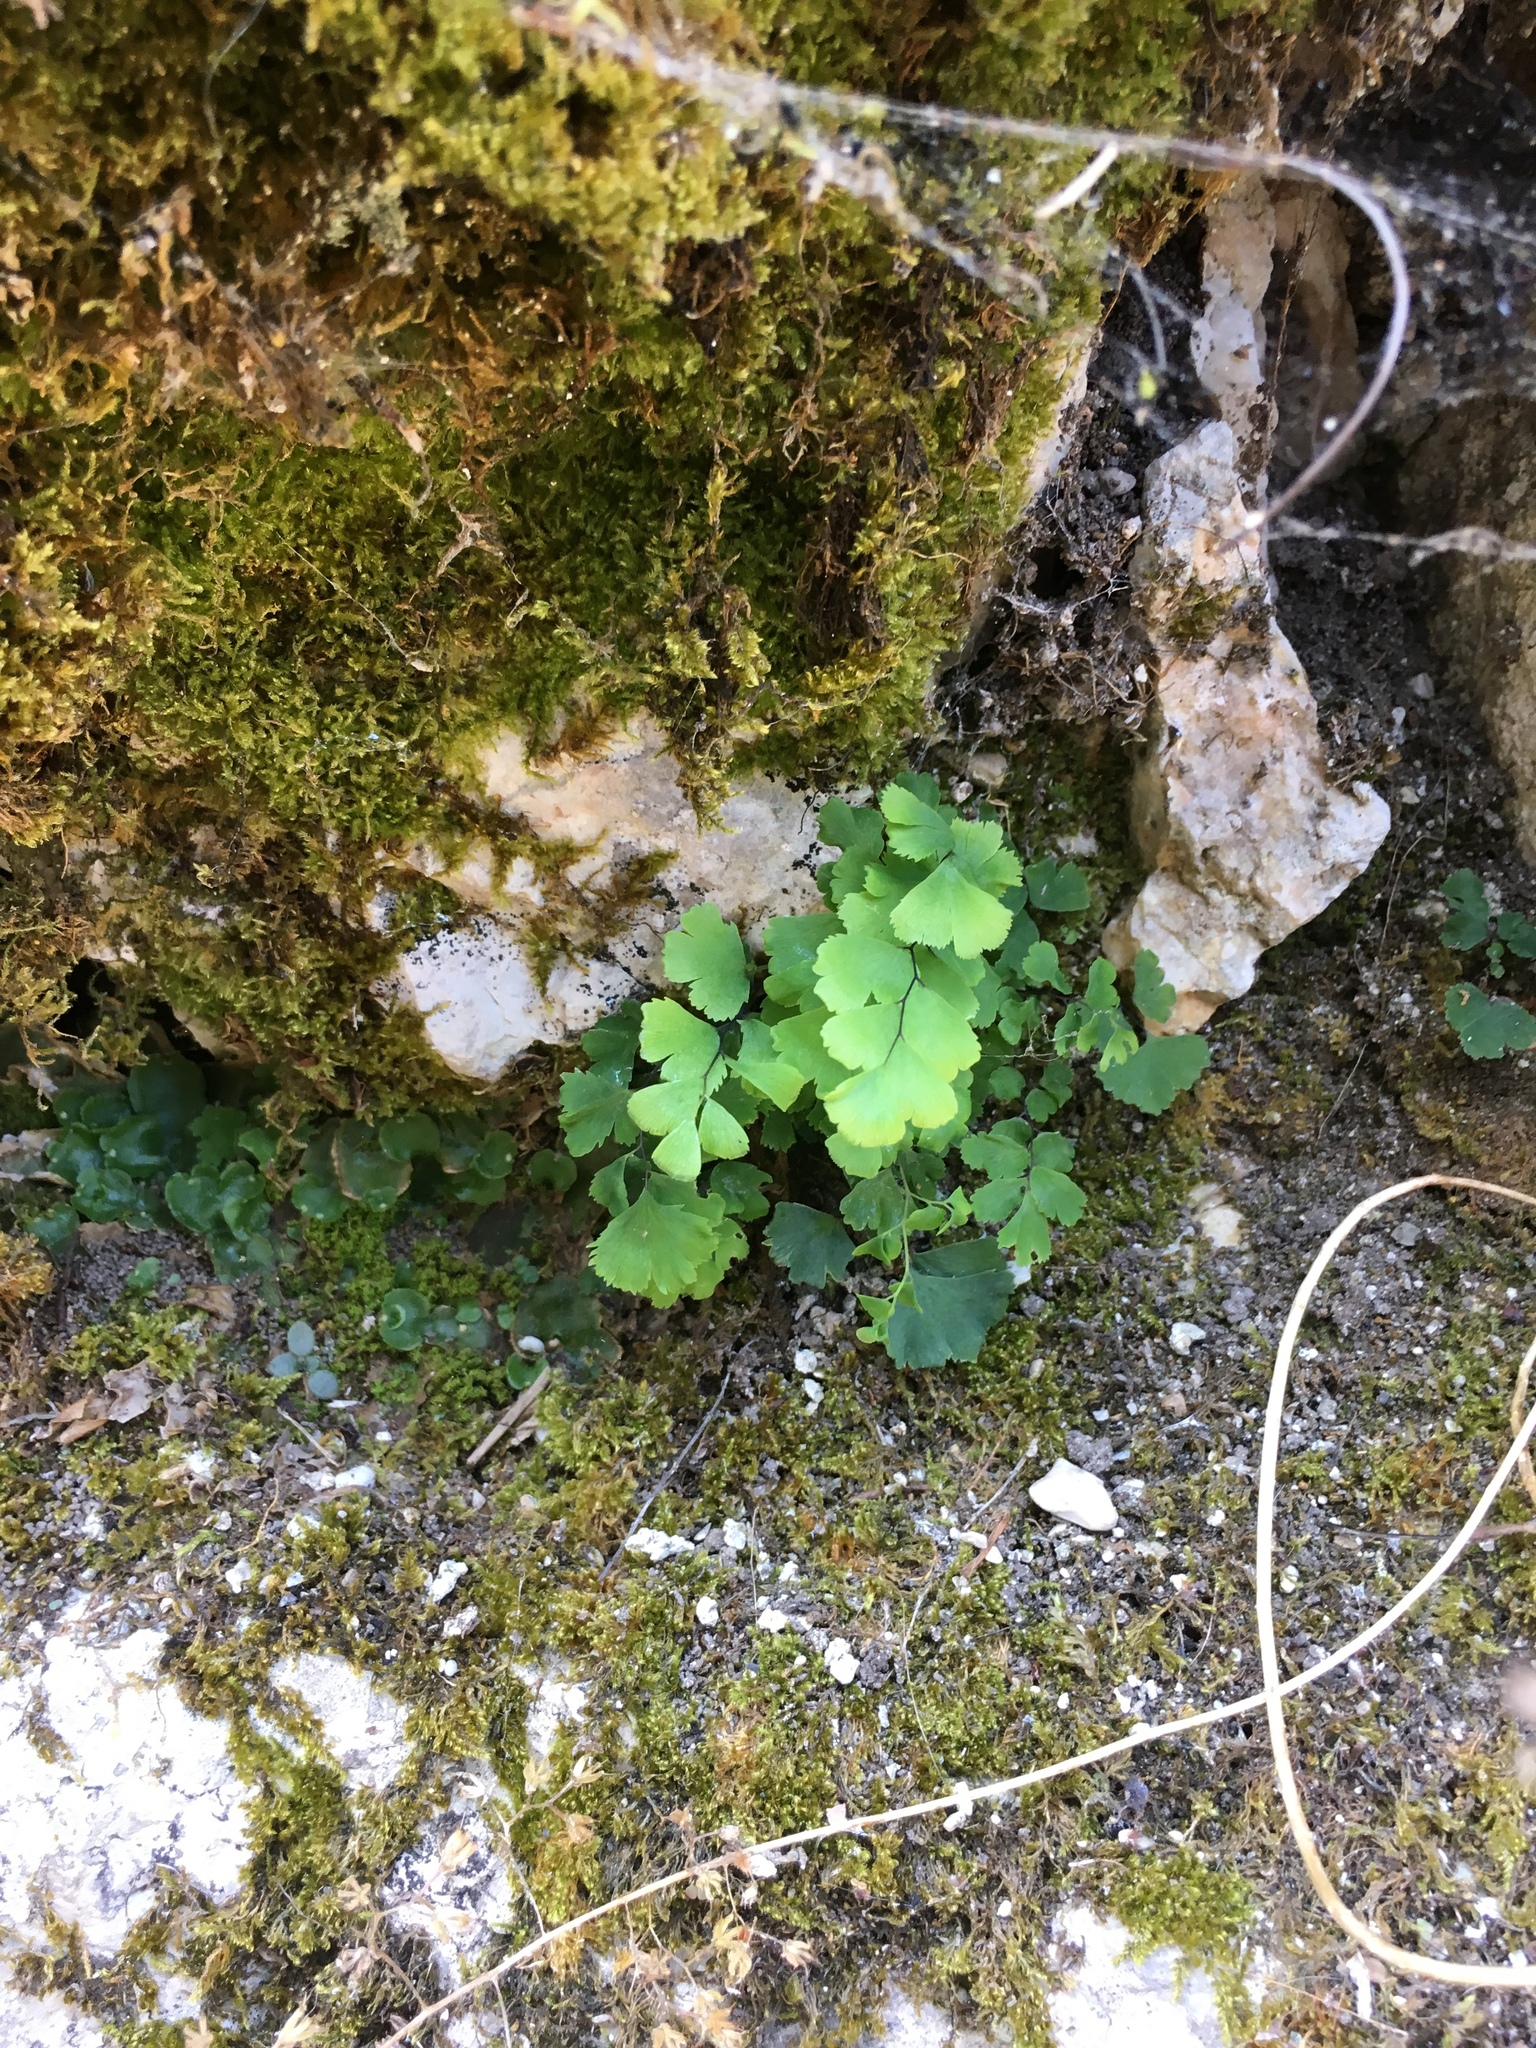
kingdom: Plantae
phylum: Tracheophyta
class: Polypodiopsida
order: Polypodiales
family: Pteridaceae
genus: Adiantum
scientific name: Adiantum capillus-veneris
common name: Maidenhair fern
